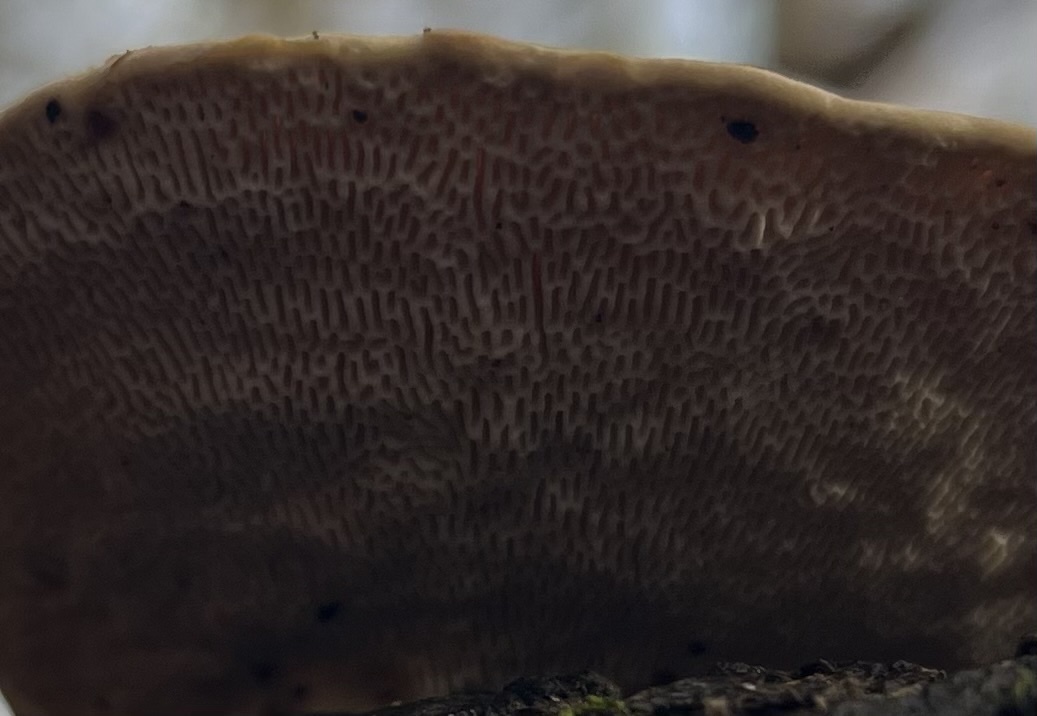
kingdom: Fungi
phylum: Basidiomycota
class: Agaricomycetes
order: Polyporales
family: Polyporaceae
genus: Trametes
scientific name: Trametes gibbosa
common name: Lumpy bracket
